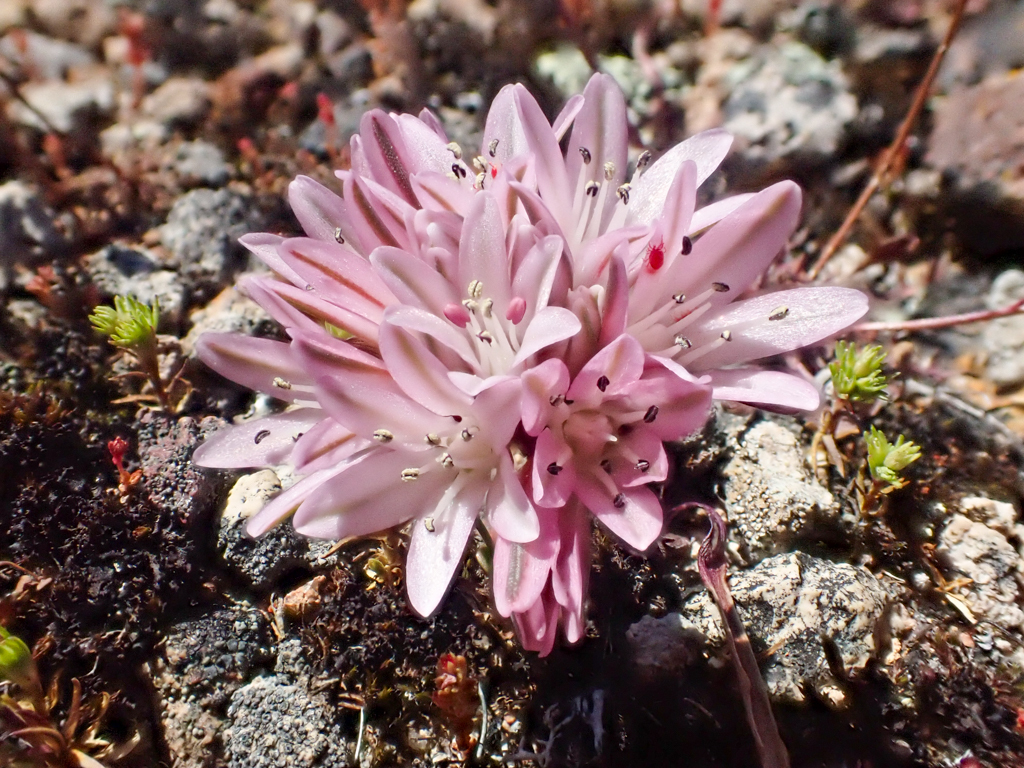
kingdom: Plantae
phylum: Tracheophyta
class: Liliopsida
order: Asparagales
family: Amaryllidaceae
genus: Allium
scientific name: Allium cratericola
